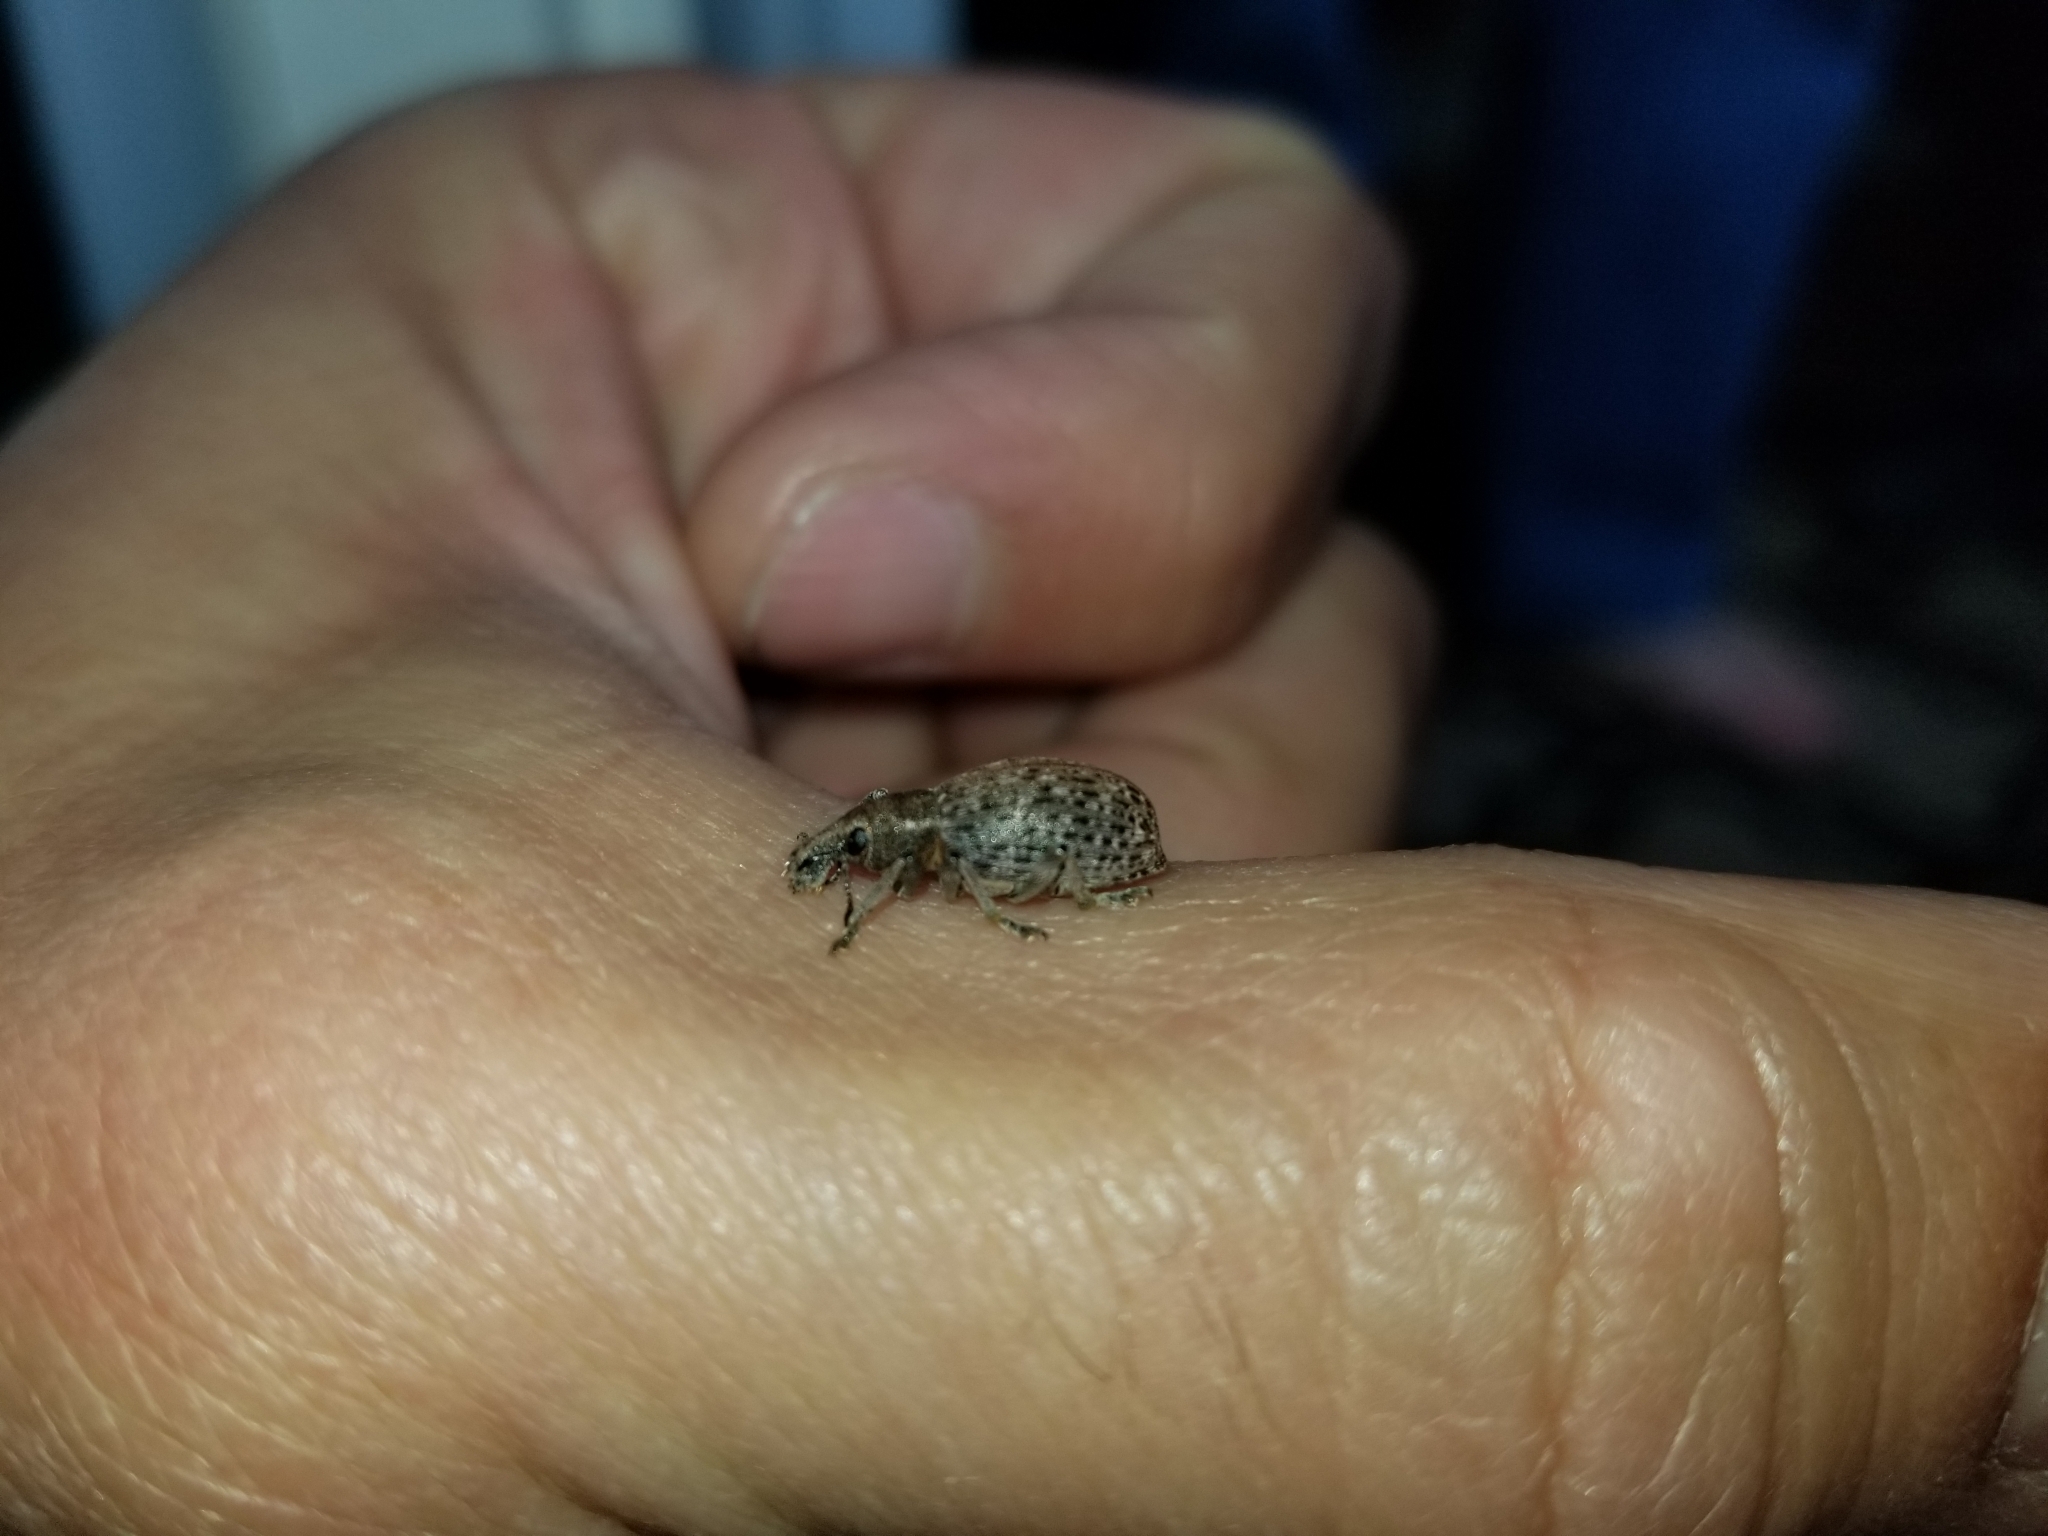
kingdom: Animalia
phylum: Arthropoda
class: Insecta
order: Coleoptera
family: Curculionidae
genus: Trichalophus
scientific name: Trichalophus alternatus
